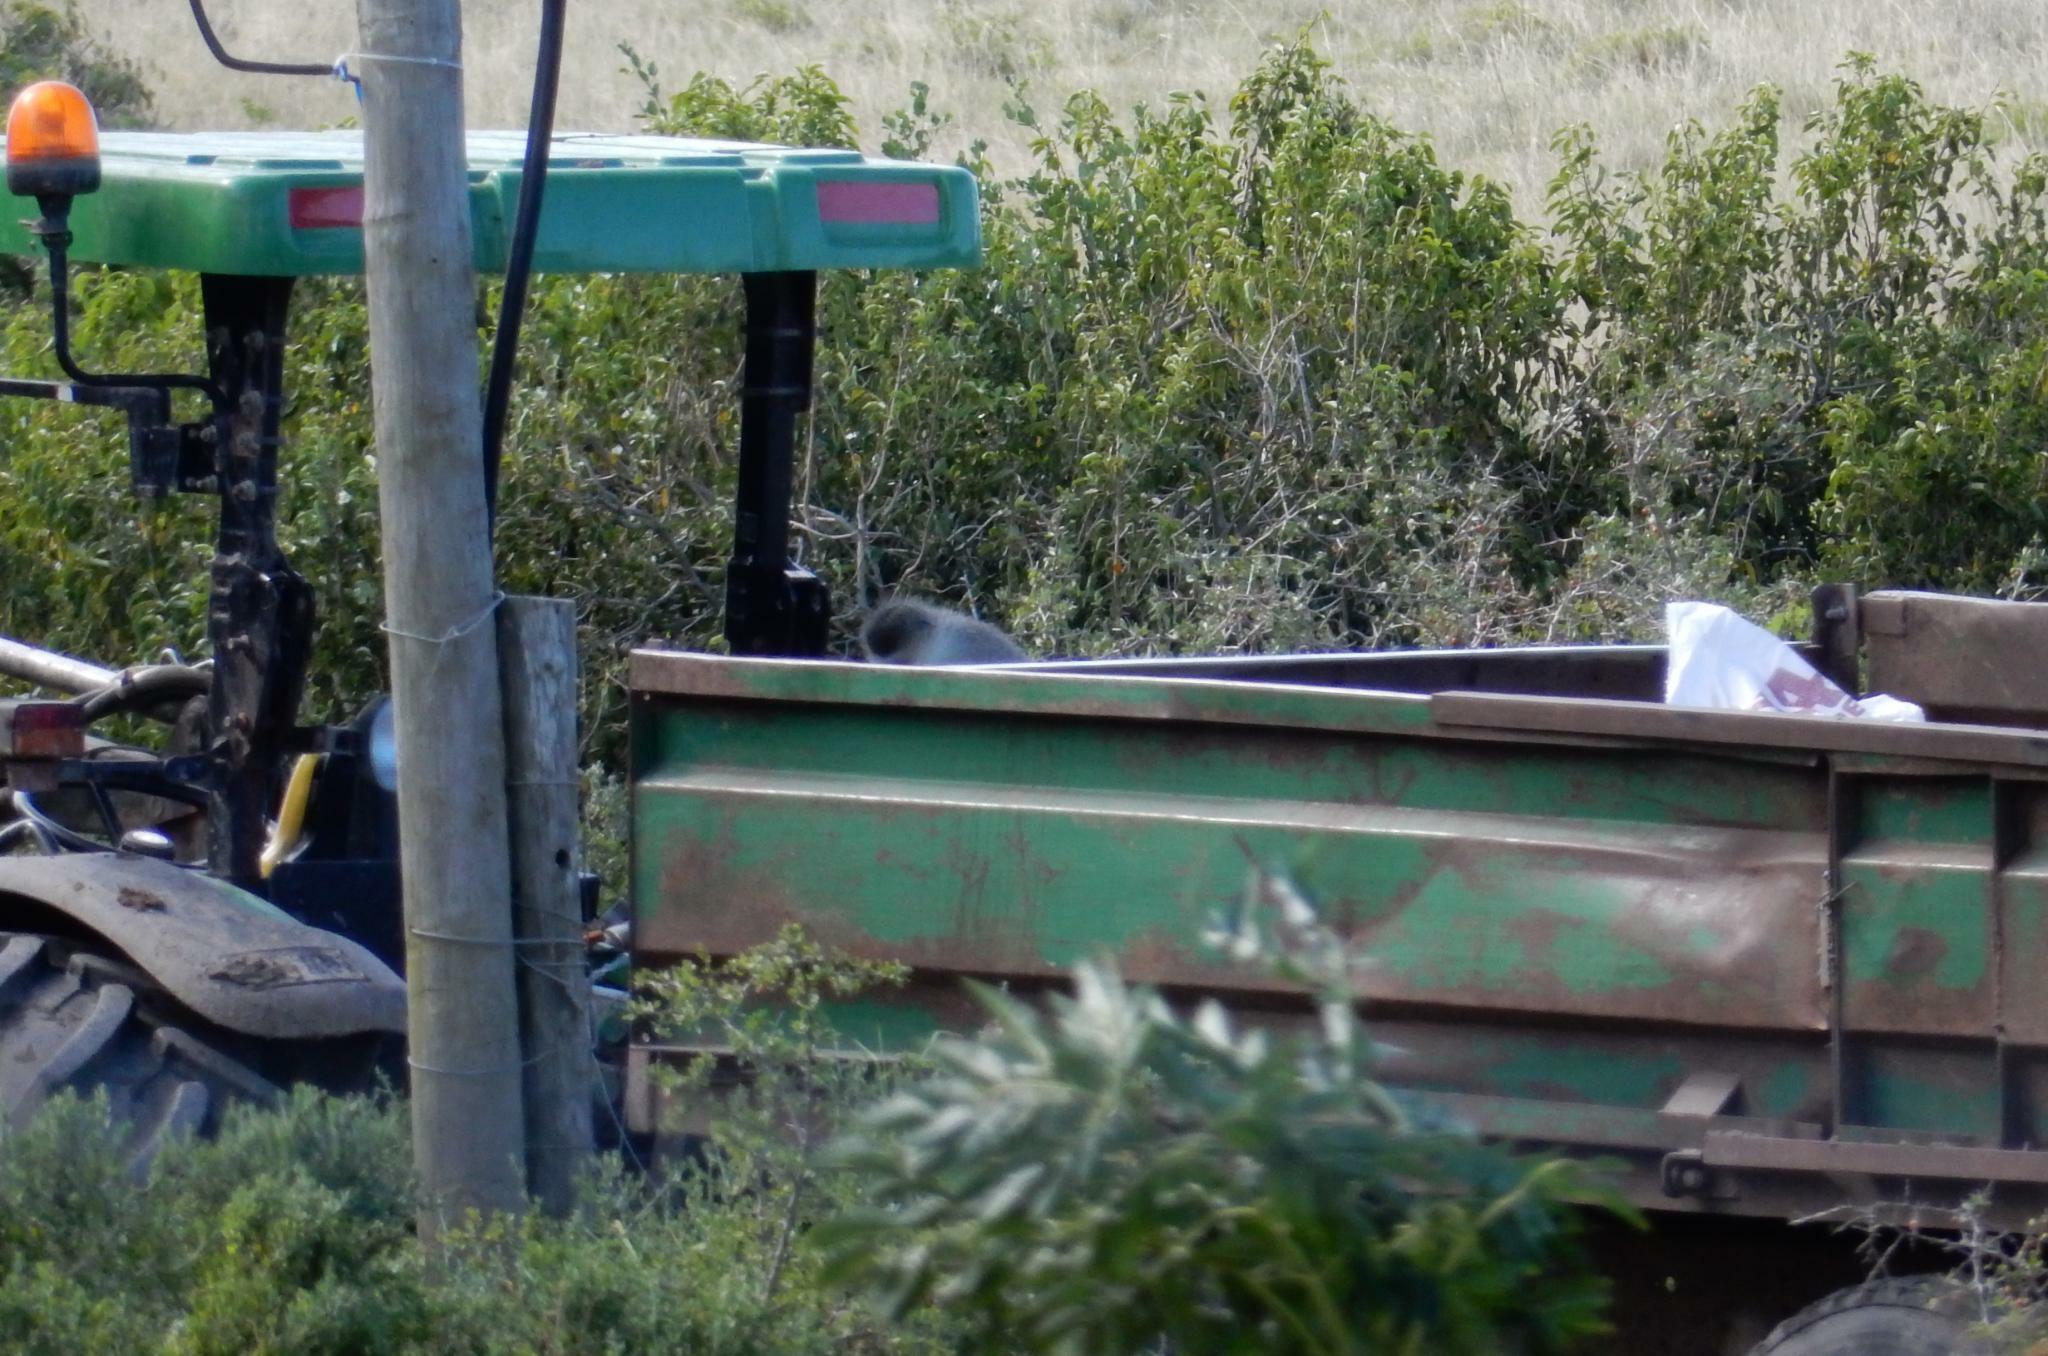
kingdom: Animalia
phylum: Chordata
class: Mammalia
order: Primates
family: Cercopithecidae
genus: Chlorocebus
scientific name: Chlorocebus pygerythrus
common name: Vervet monkey
